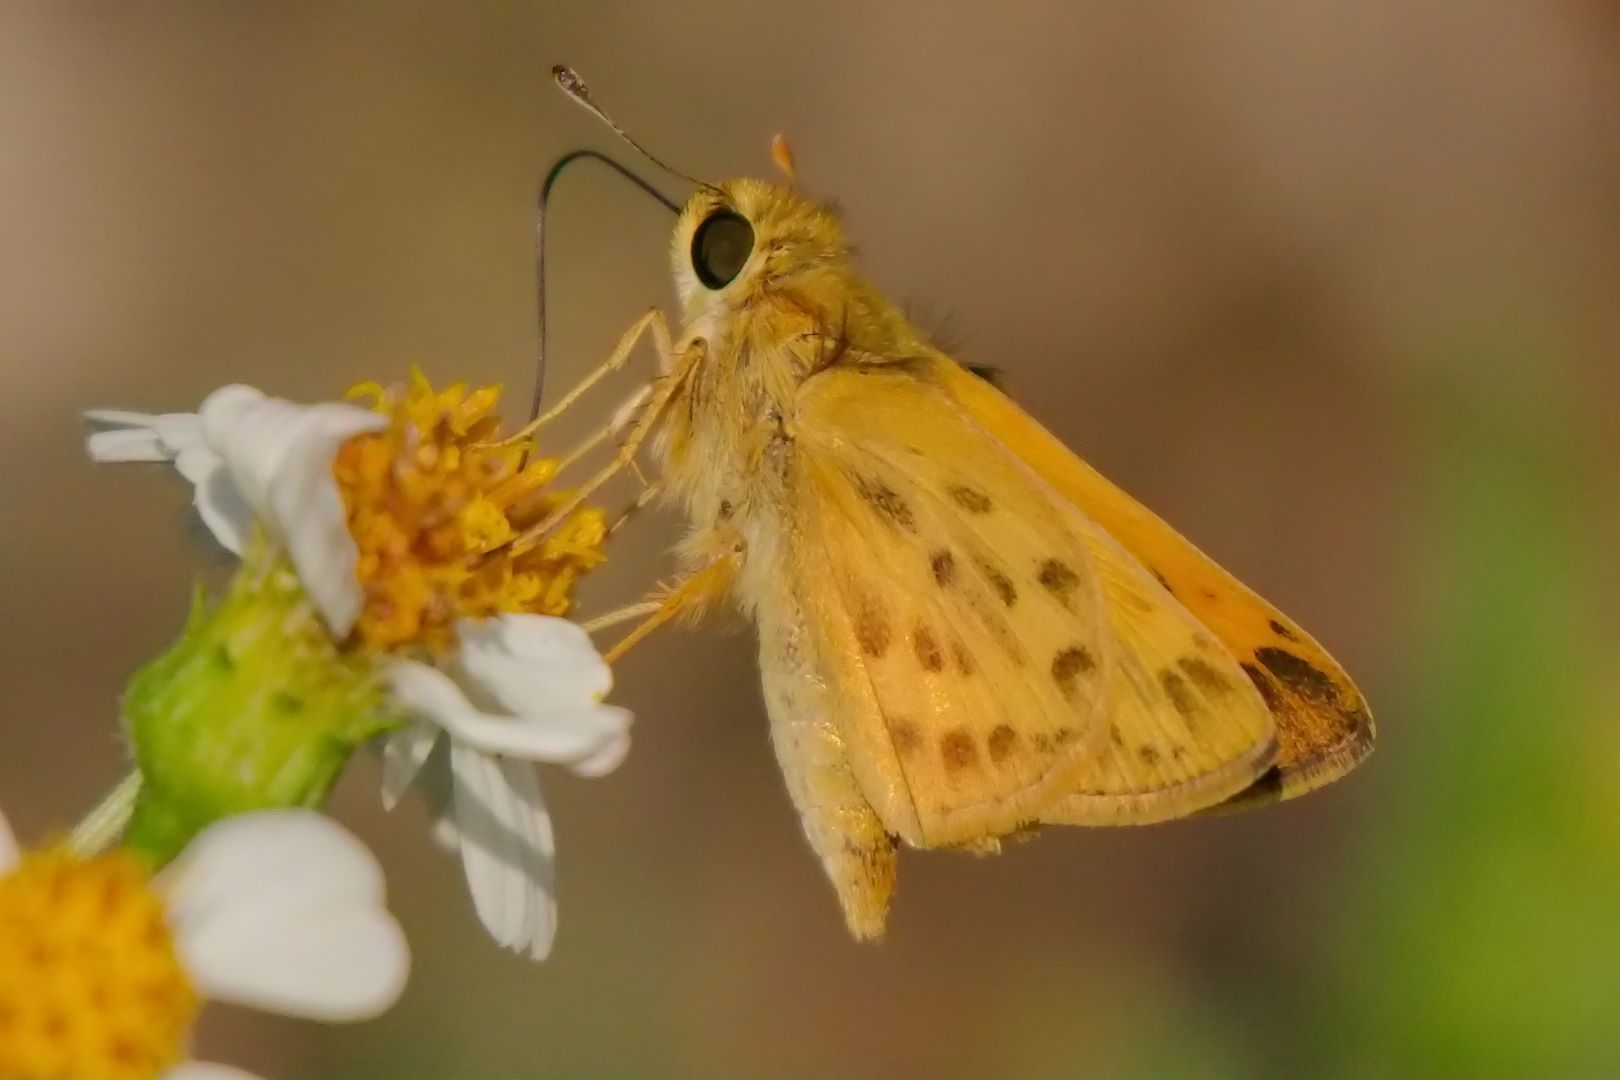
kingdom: Animalia
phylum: Arthropoda
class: Insecta
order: Lepidoptera
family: Hesperiidae
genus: Hylephila
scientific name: Hylephila phyleus
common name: Fiery skipper
